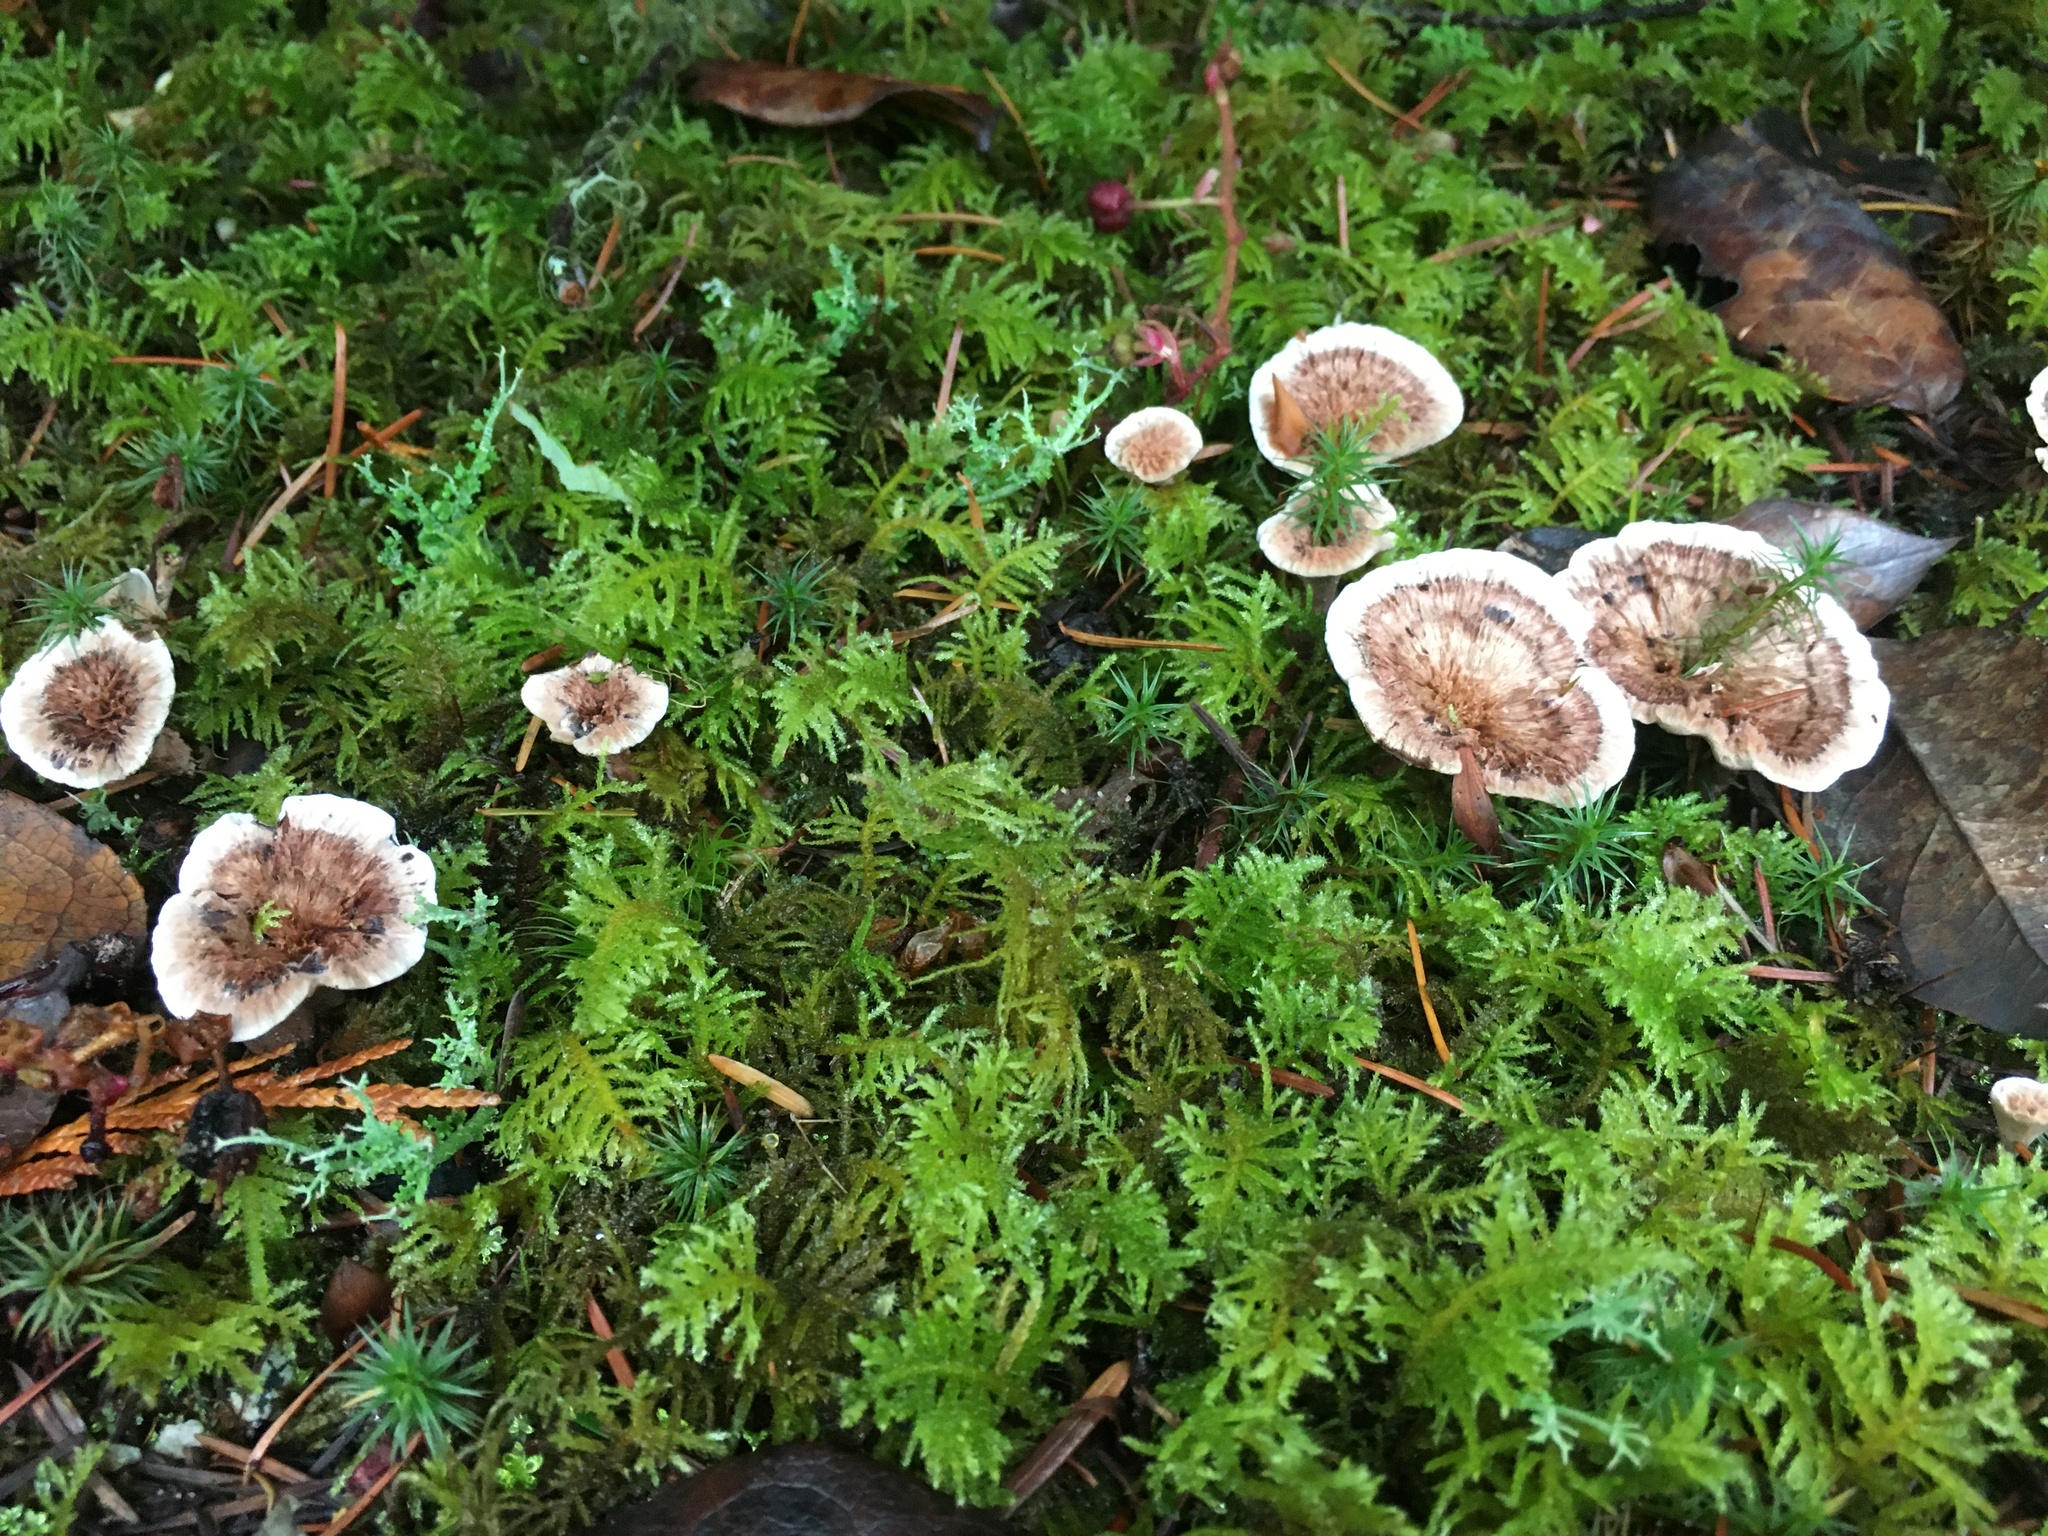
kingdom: Fungi
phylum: Basidiomycota
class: Agaricomycetes
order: Hymenochaetales
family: Hymenochaetaceae
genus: Coltricia
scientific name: Coltricia perennis
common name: Tiger's eye
